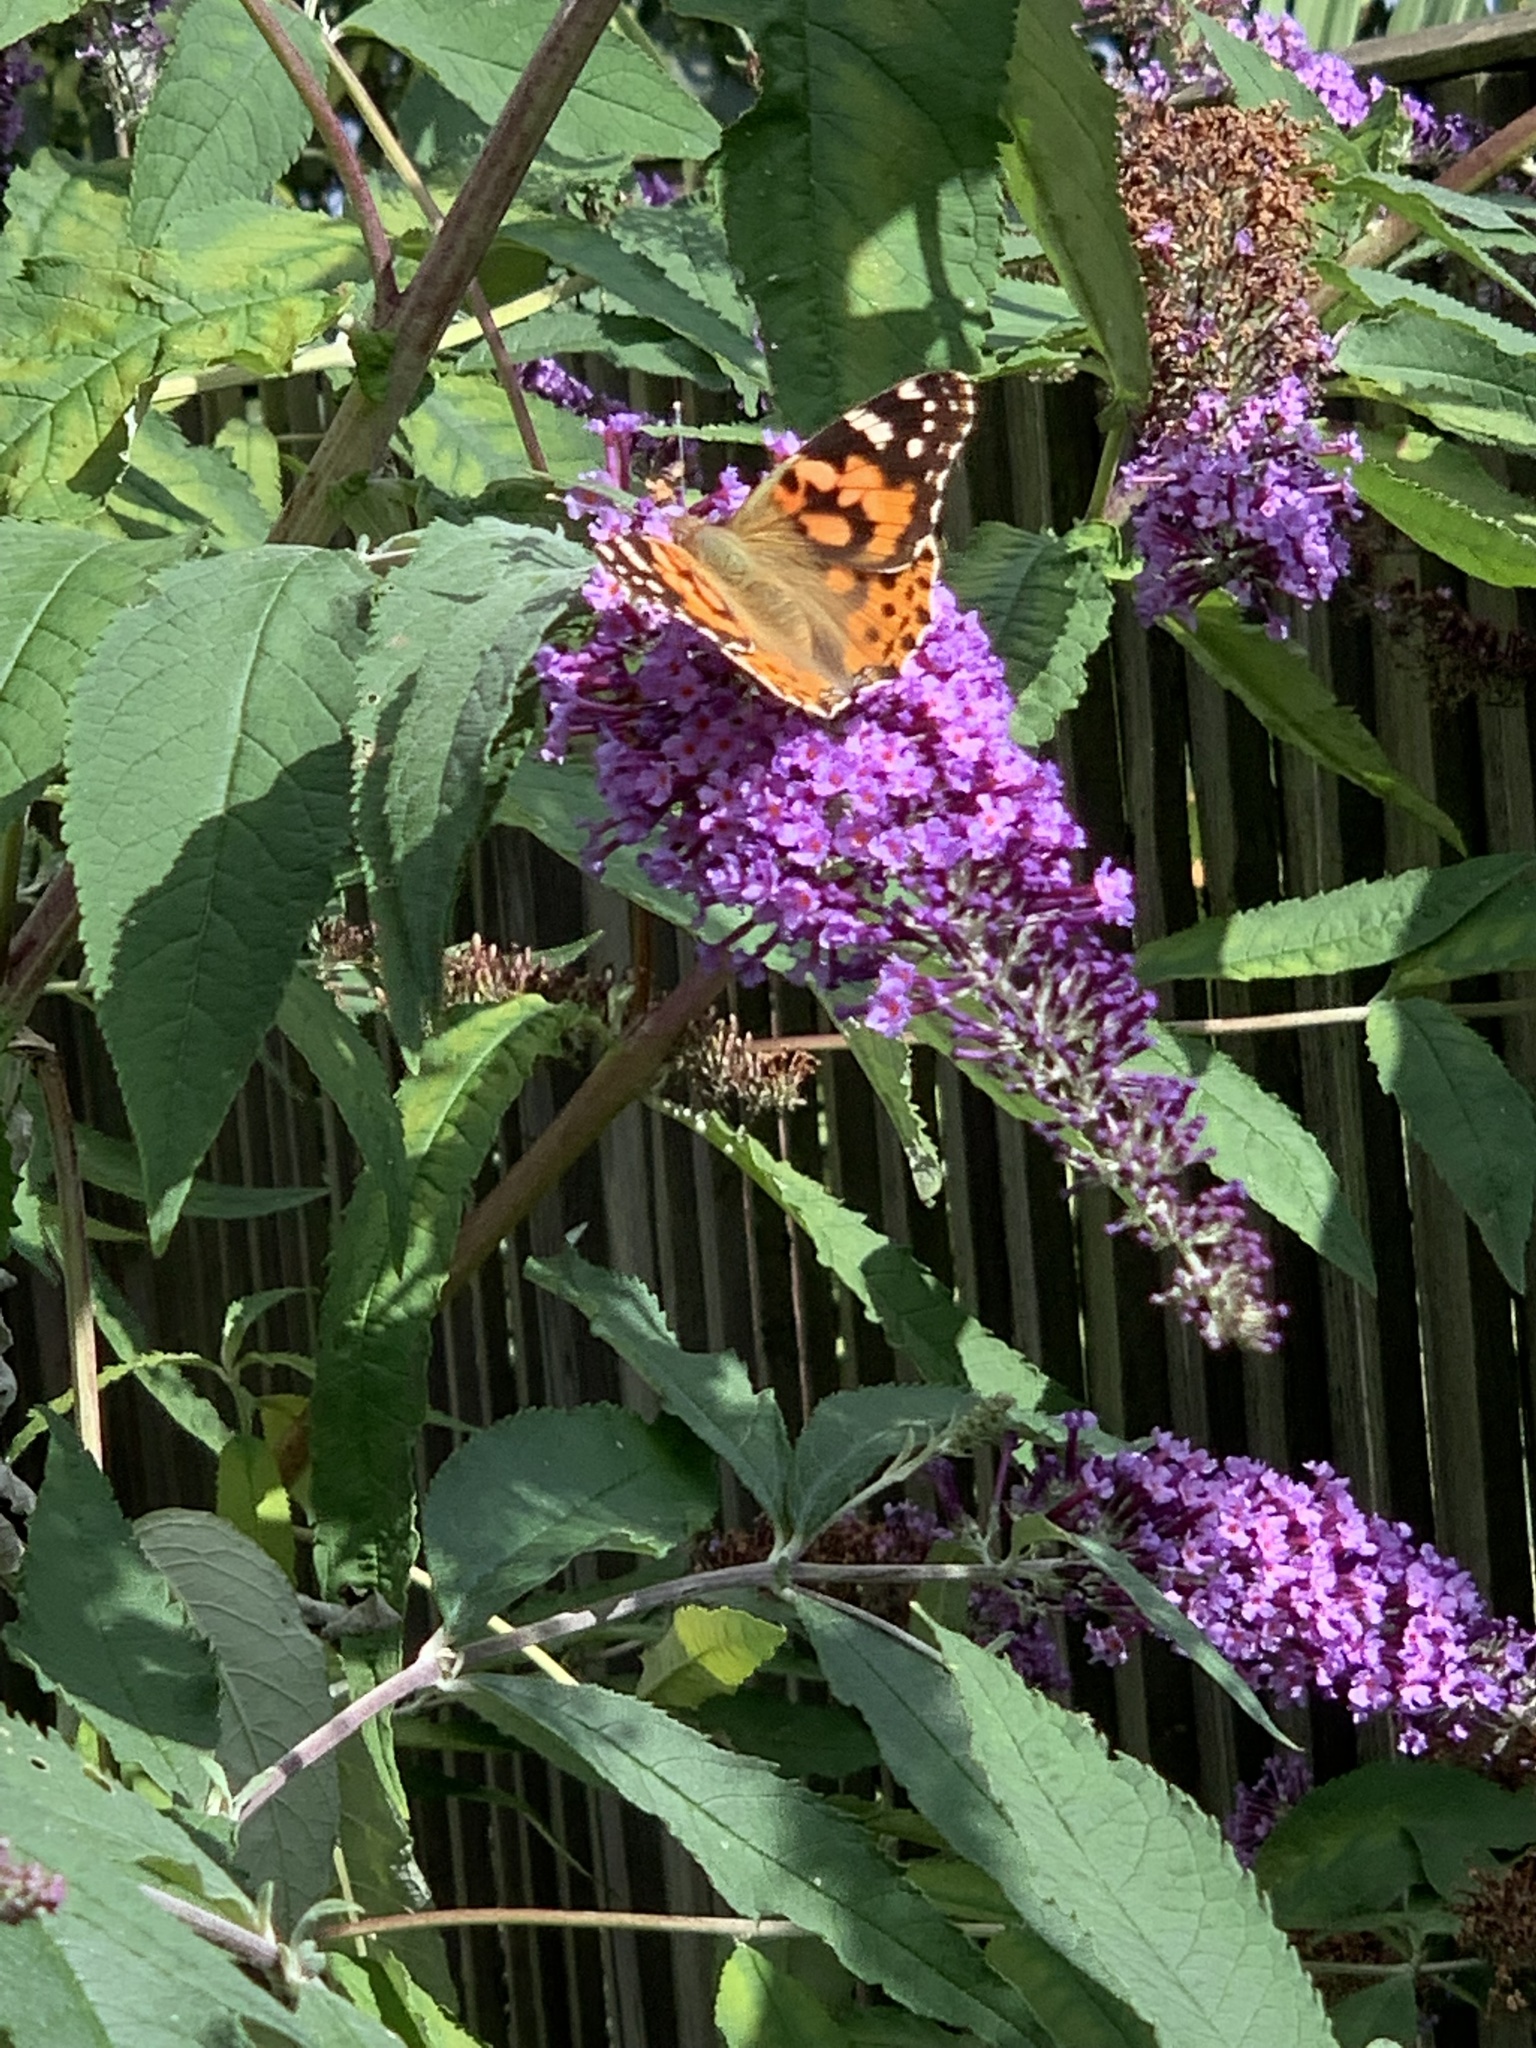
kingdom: Animalia
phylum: Arthropoda
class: Insecta
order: Lepidoptera
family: Nymphalidae
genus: Vanessa
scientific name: Vanessa cardui
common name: Painted lady
